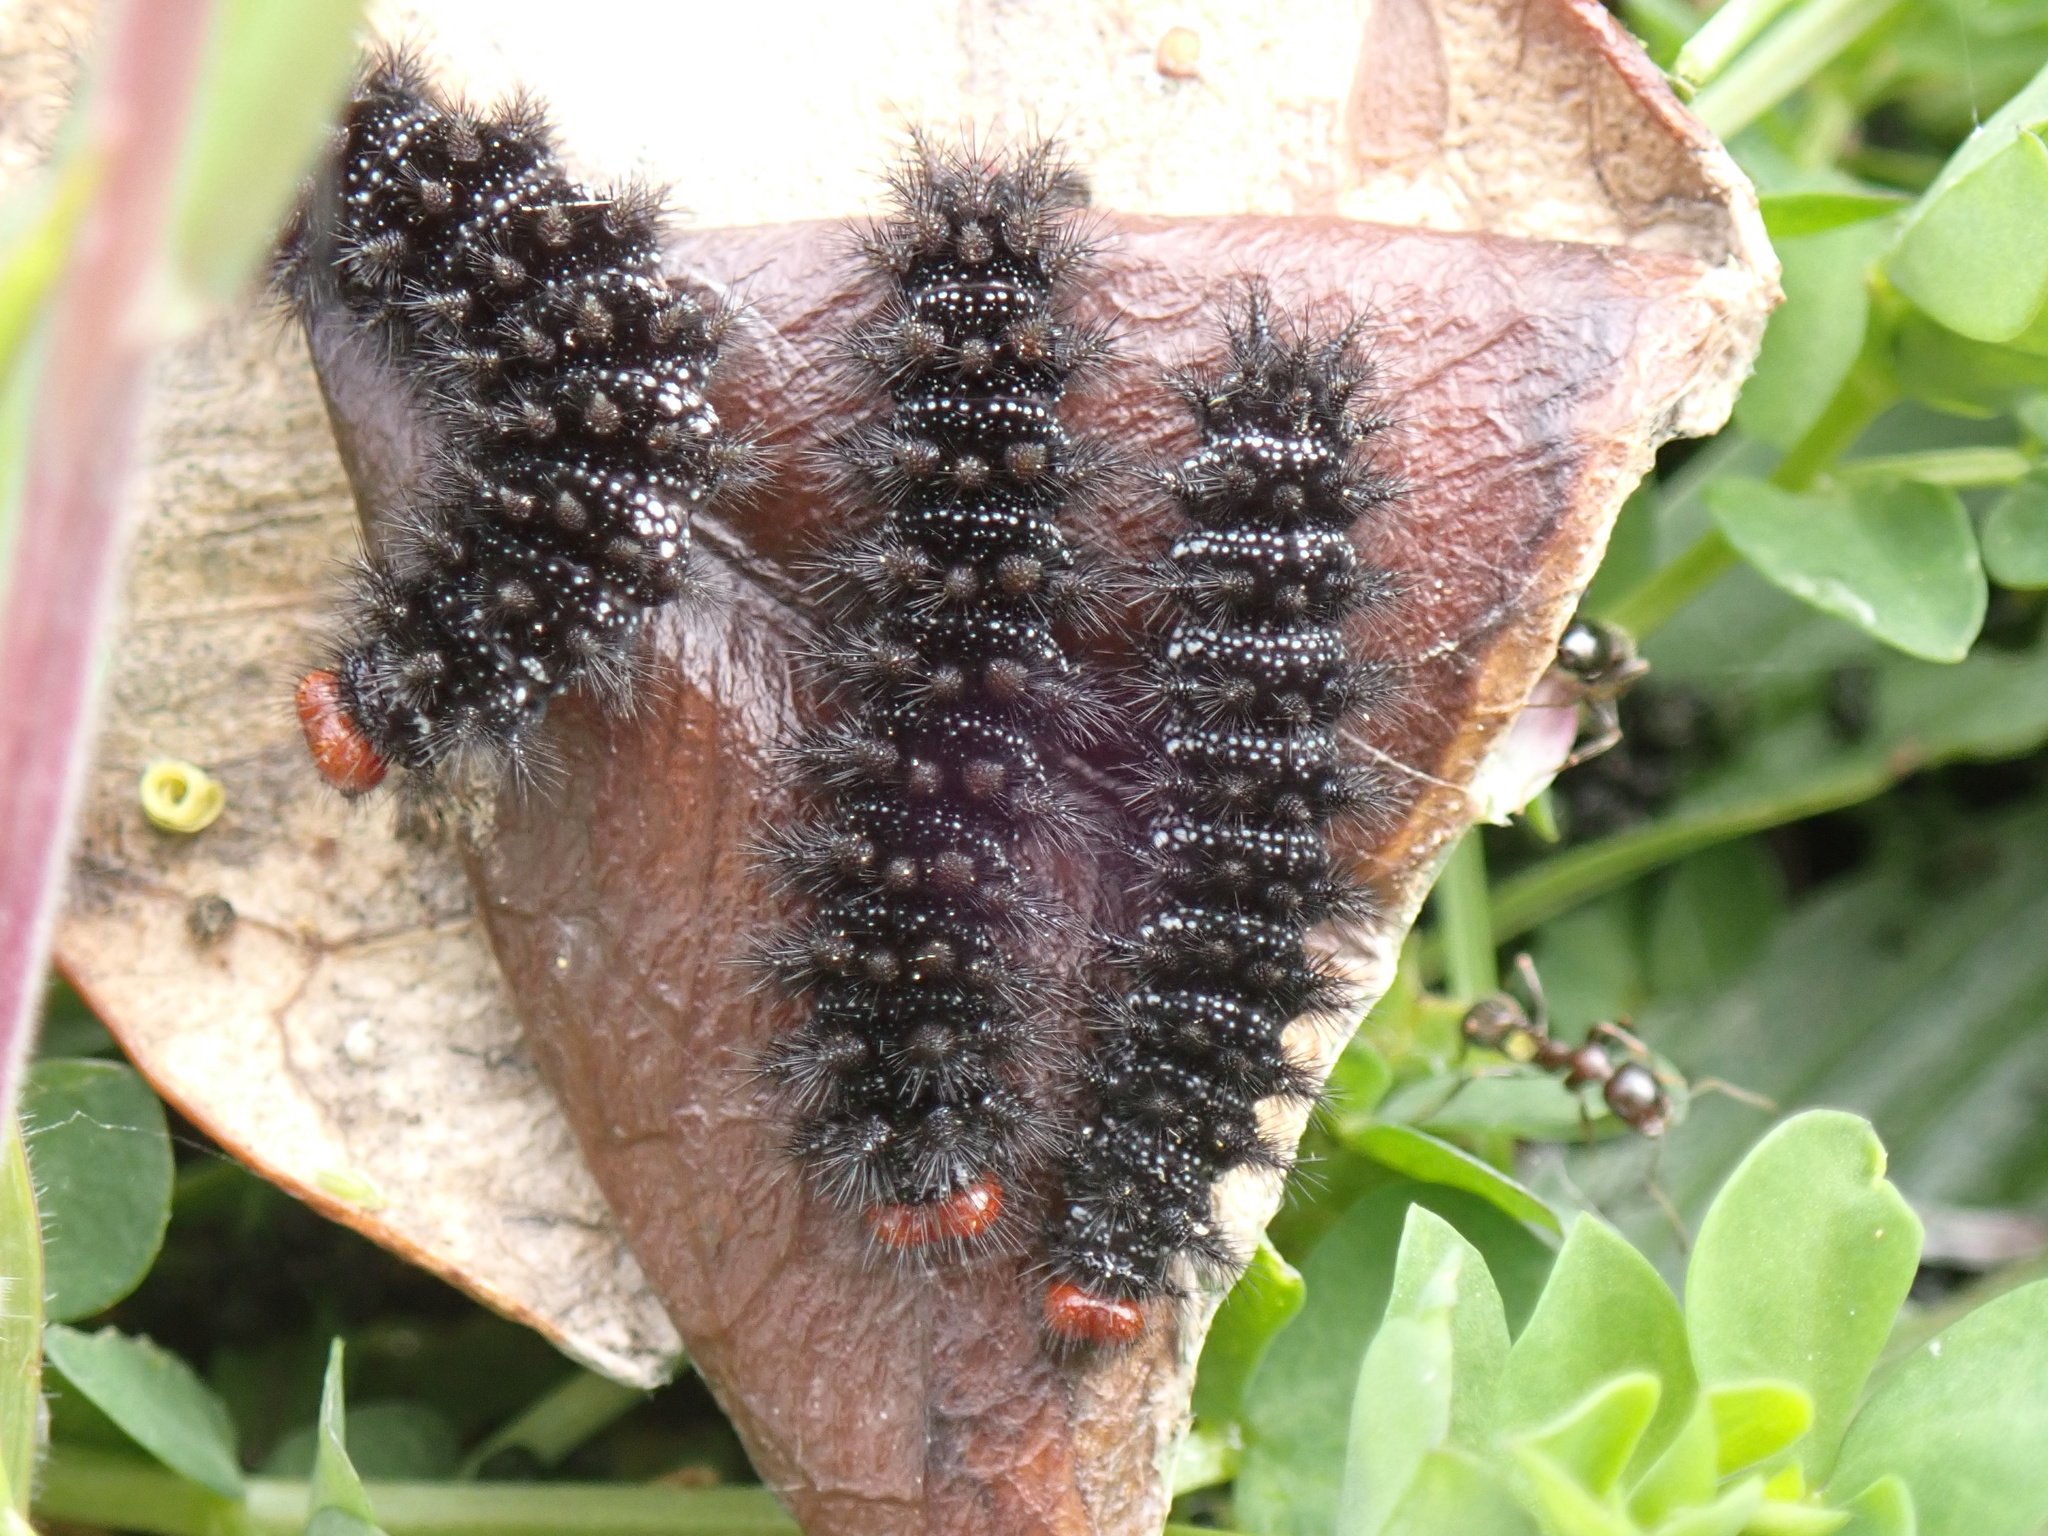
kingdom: Animalia
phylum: Arthropoda
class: Insecta
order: Lepidoptera
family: Nymphalidae
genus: Melitaea
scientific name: Melitaea cinxia
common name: Glanville fritillary
